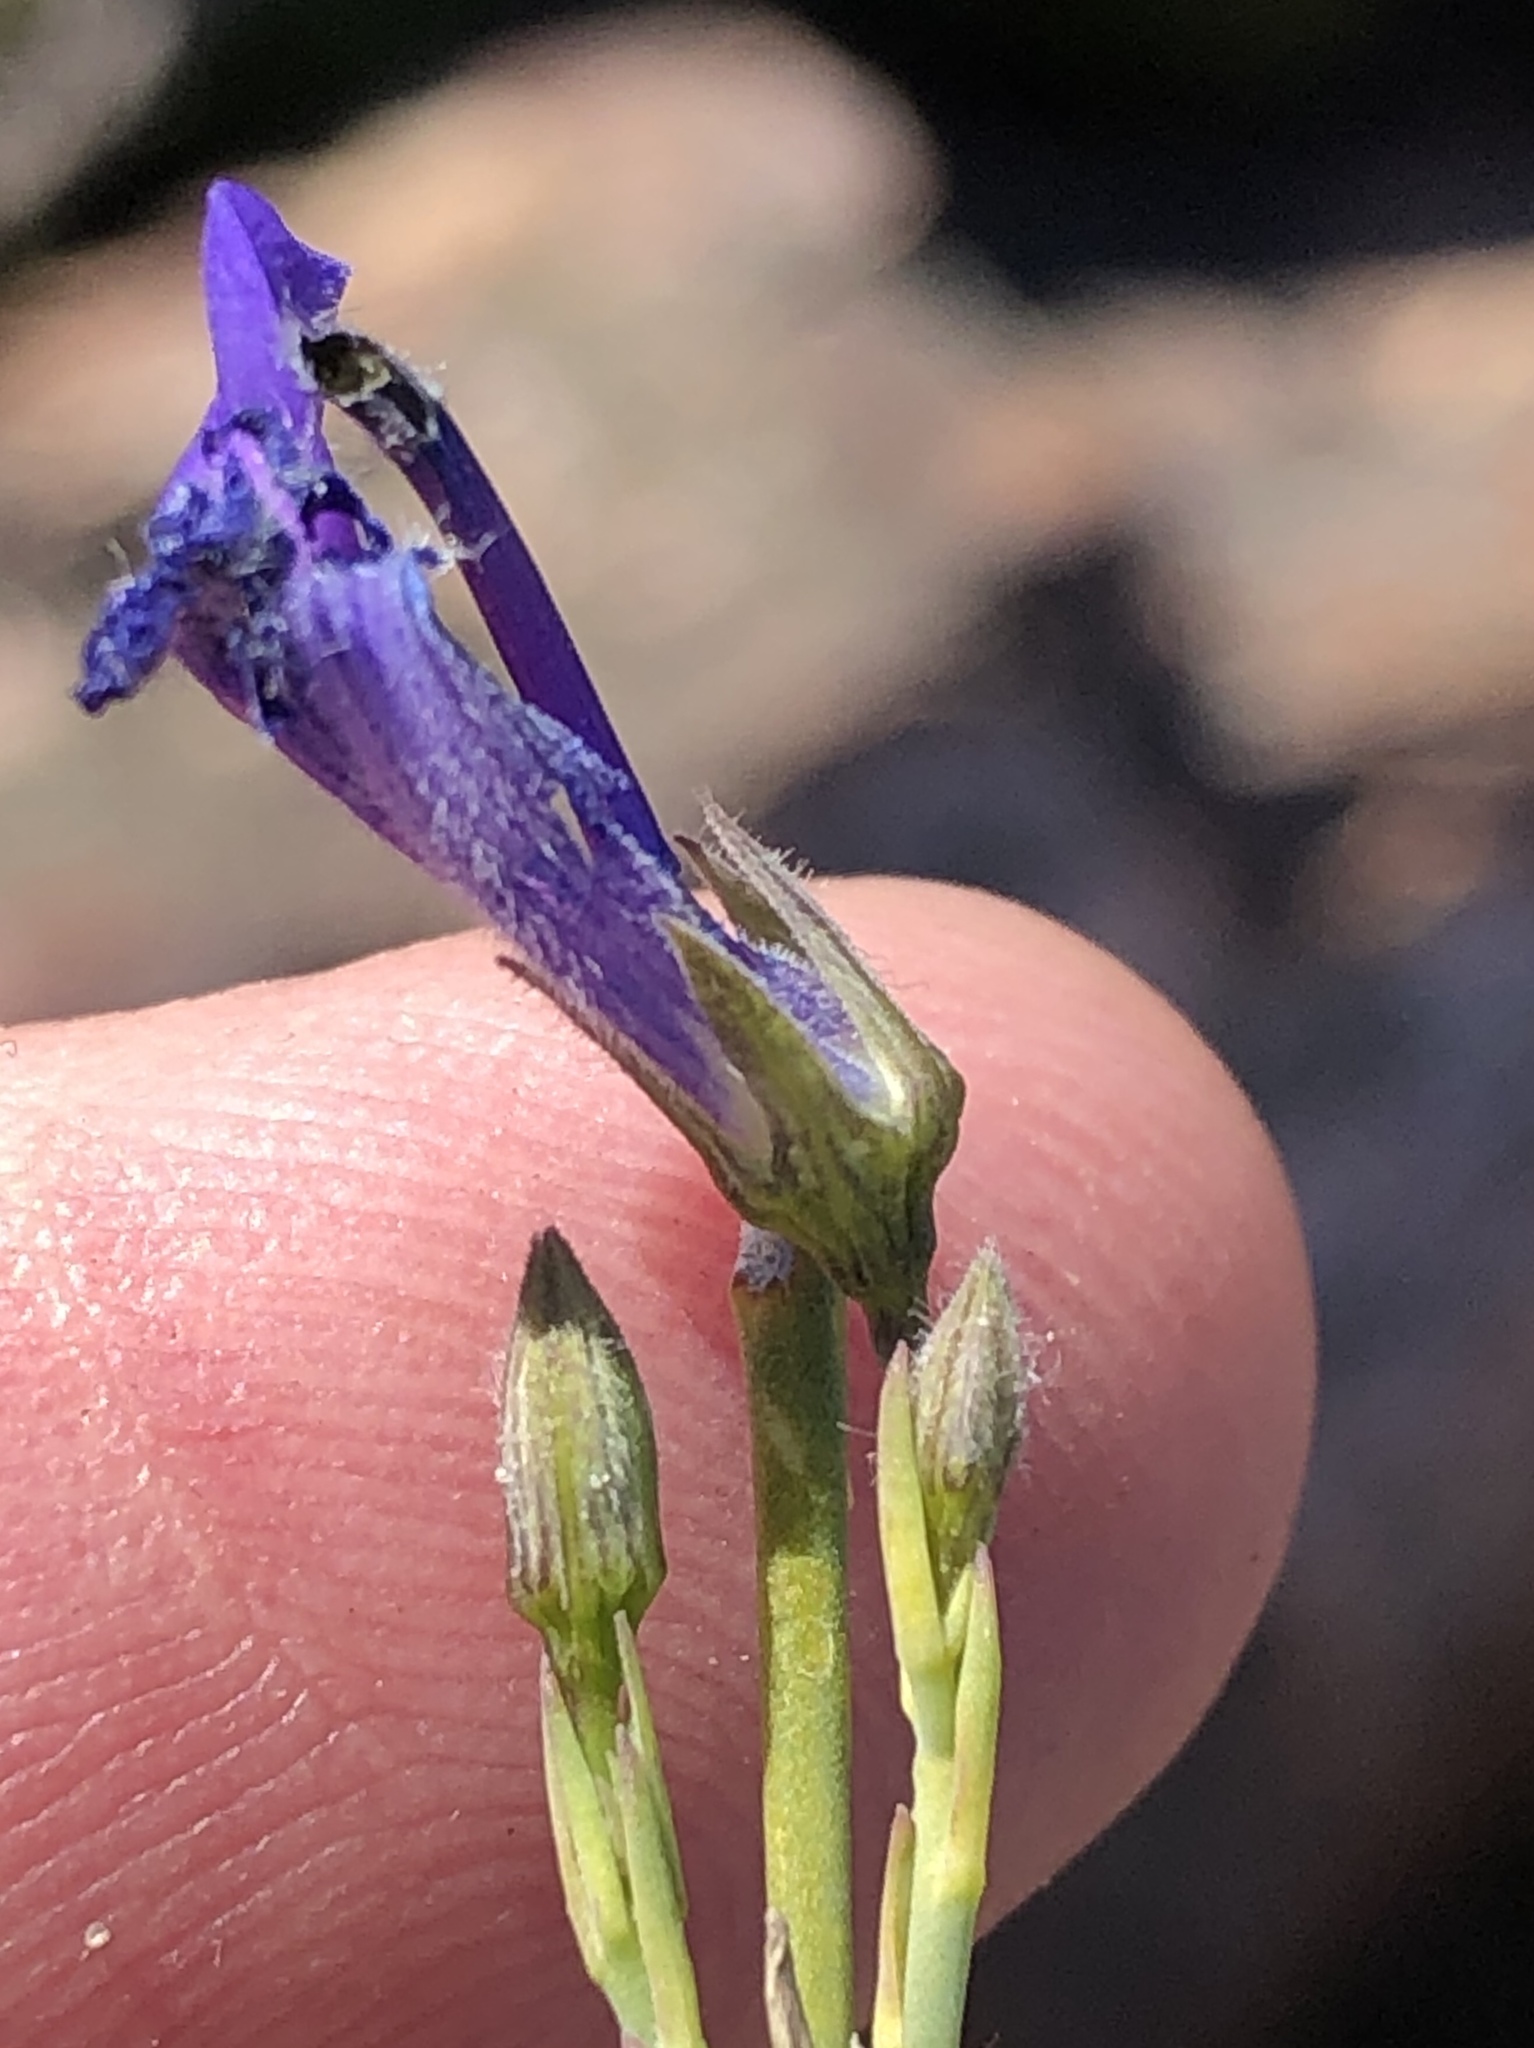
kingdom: Plantae
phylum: Tracheophyta
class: Magnoliopsida
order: Asterales
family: Campanulaceae
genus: Lobelia
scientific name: Lobelia linearis
